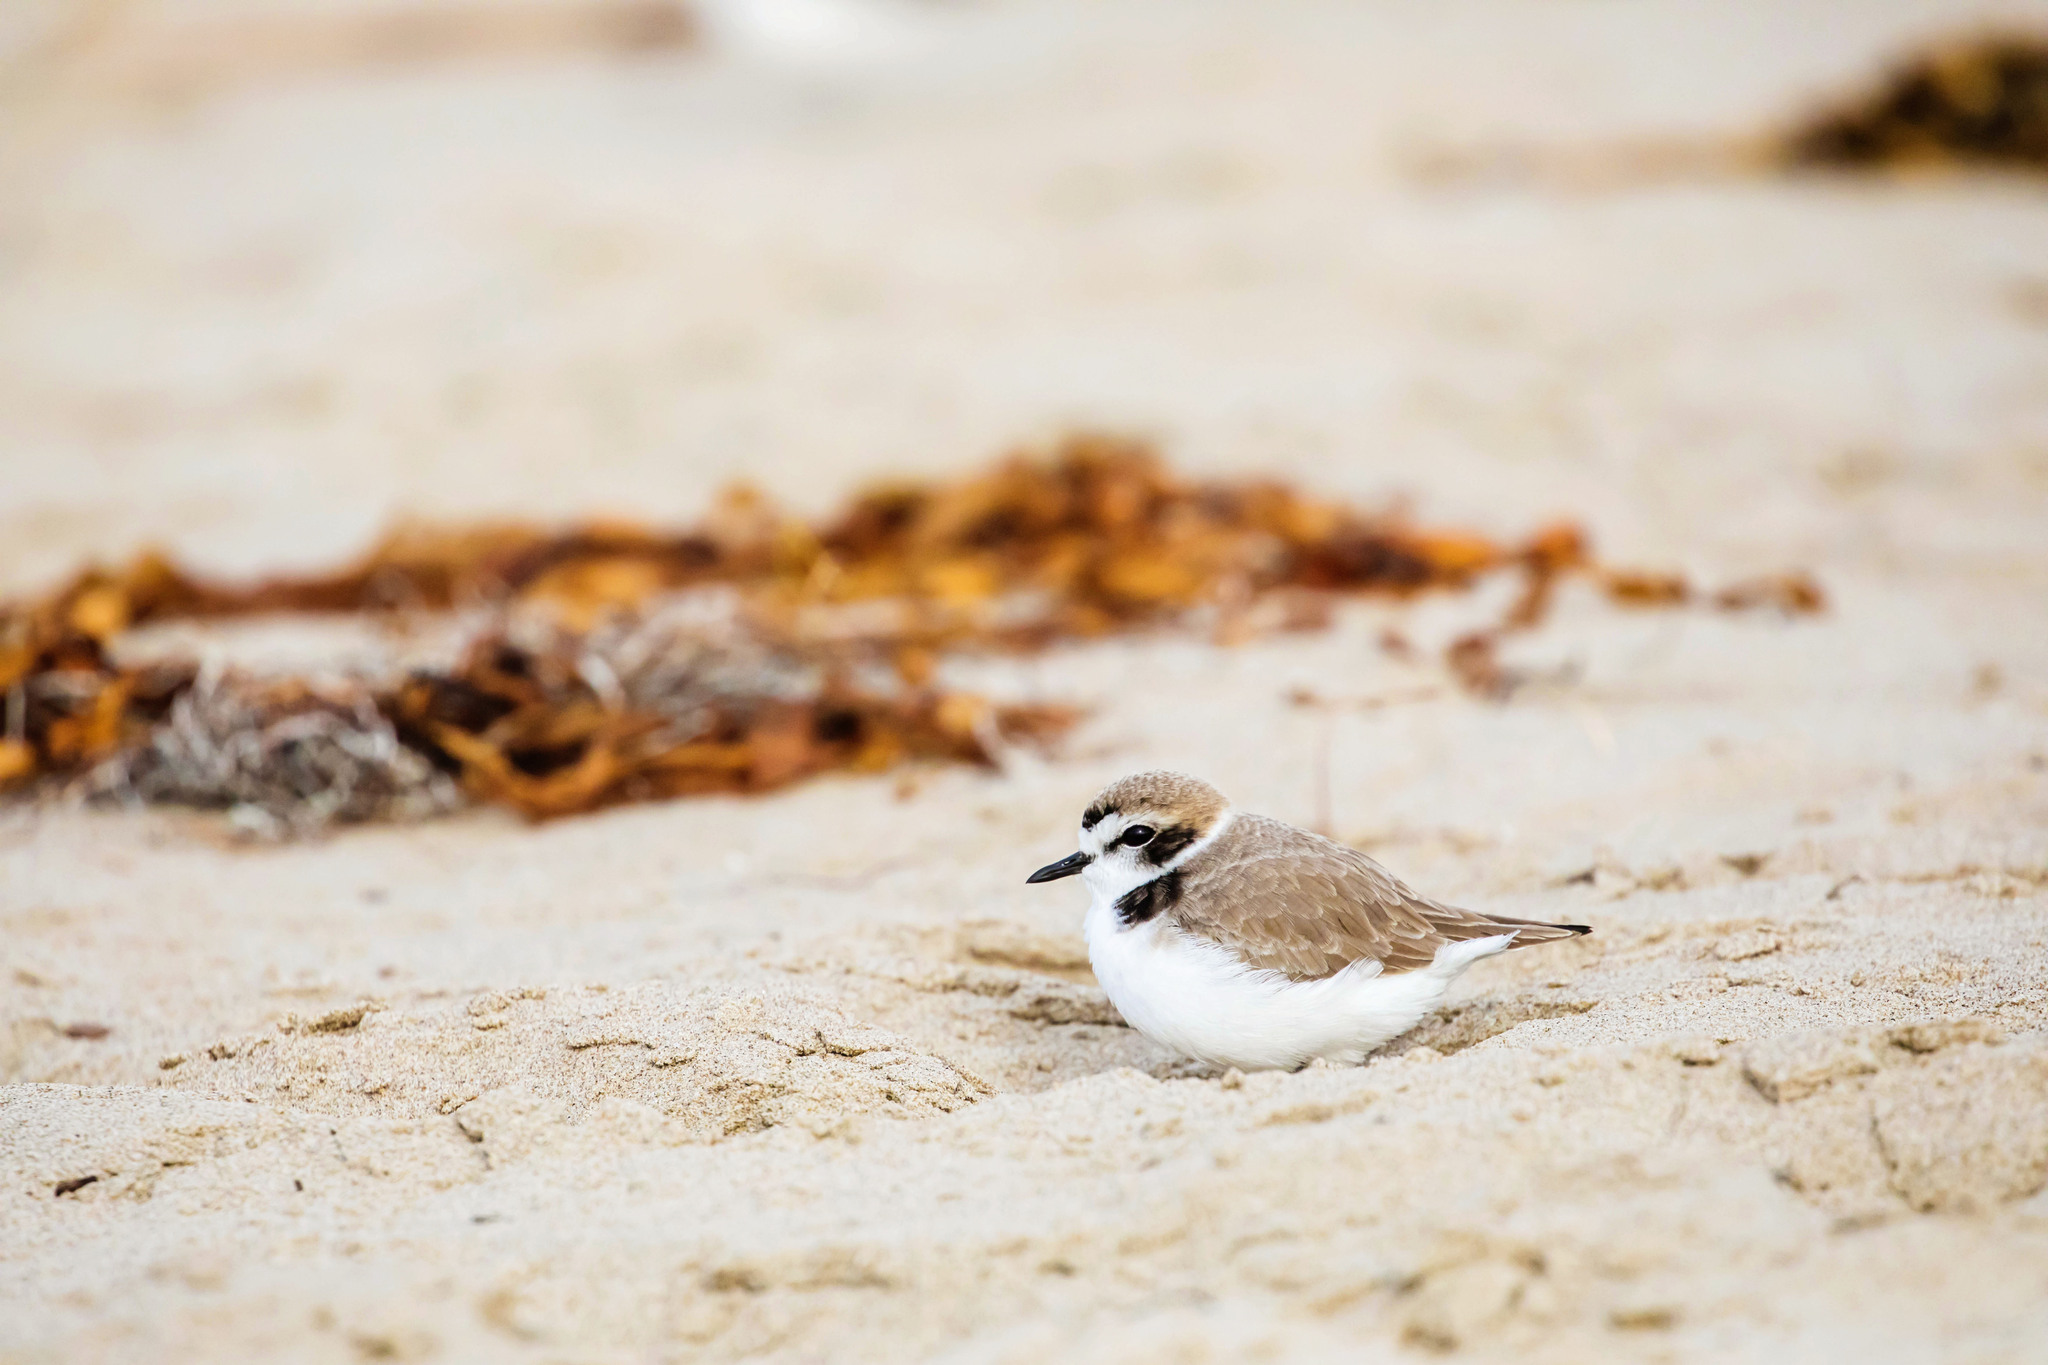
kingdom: Animalia
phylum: Chordata
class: Aves
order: Charadriiformes
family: Charadriidae
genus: Anarhynchus
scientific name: Anarhynchus
